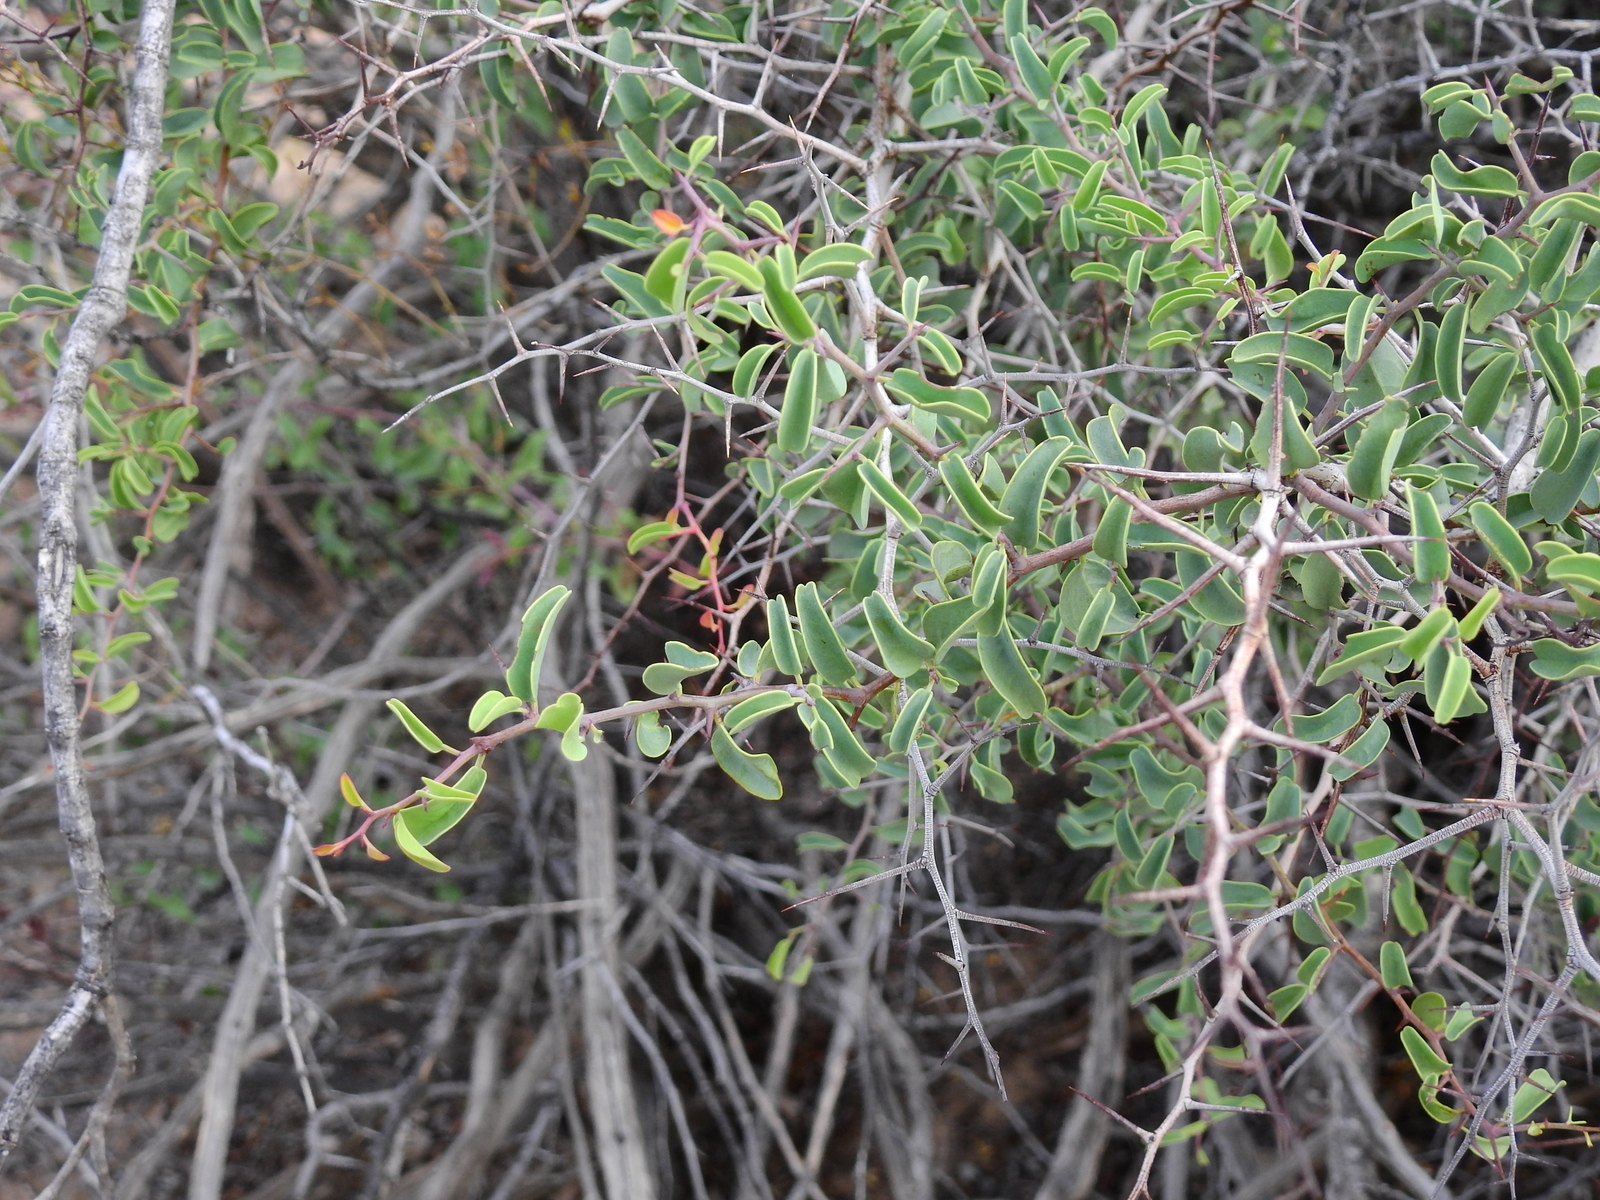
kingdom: Plantae
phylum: Tracheophyta
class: Magnoliopsida
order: Santalales
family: Ximeniaceae
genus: Ximenia
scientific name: Ximenia americana
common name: Tallowwood
